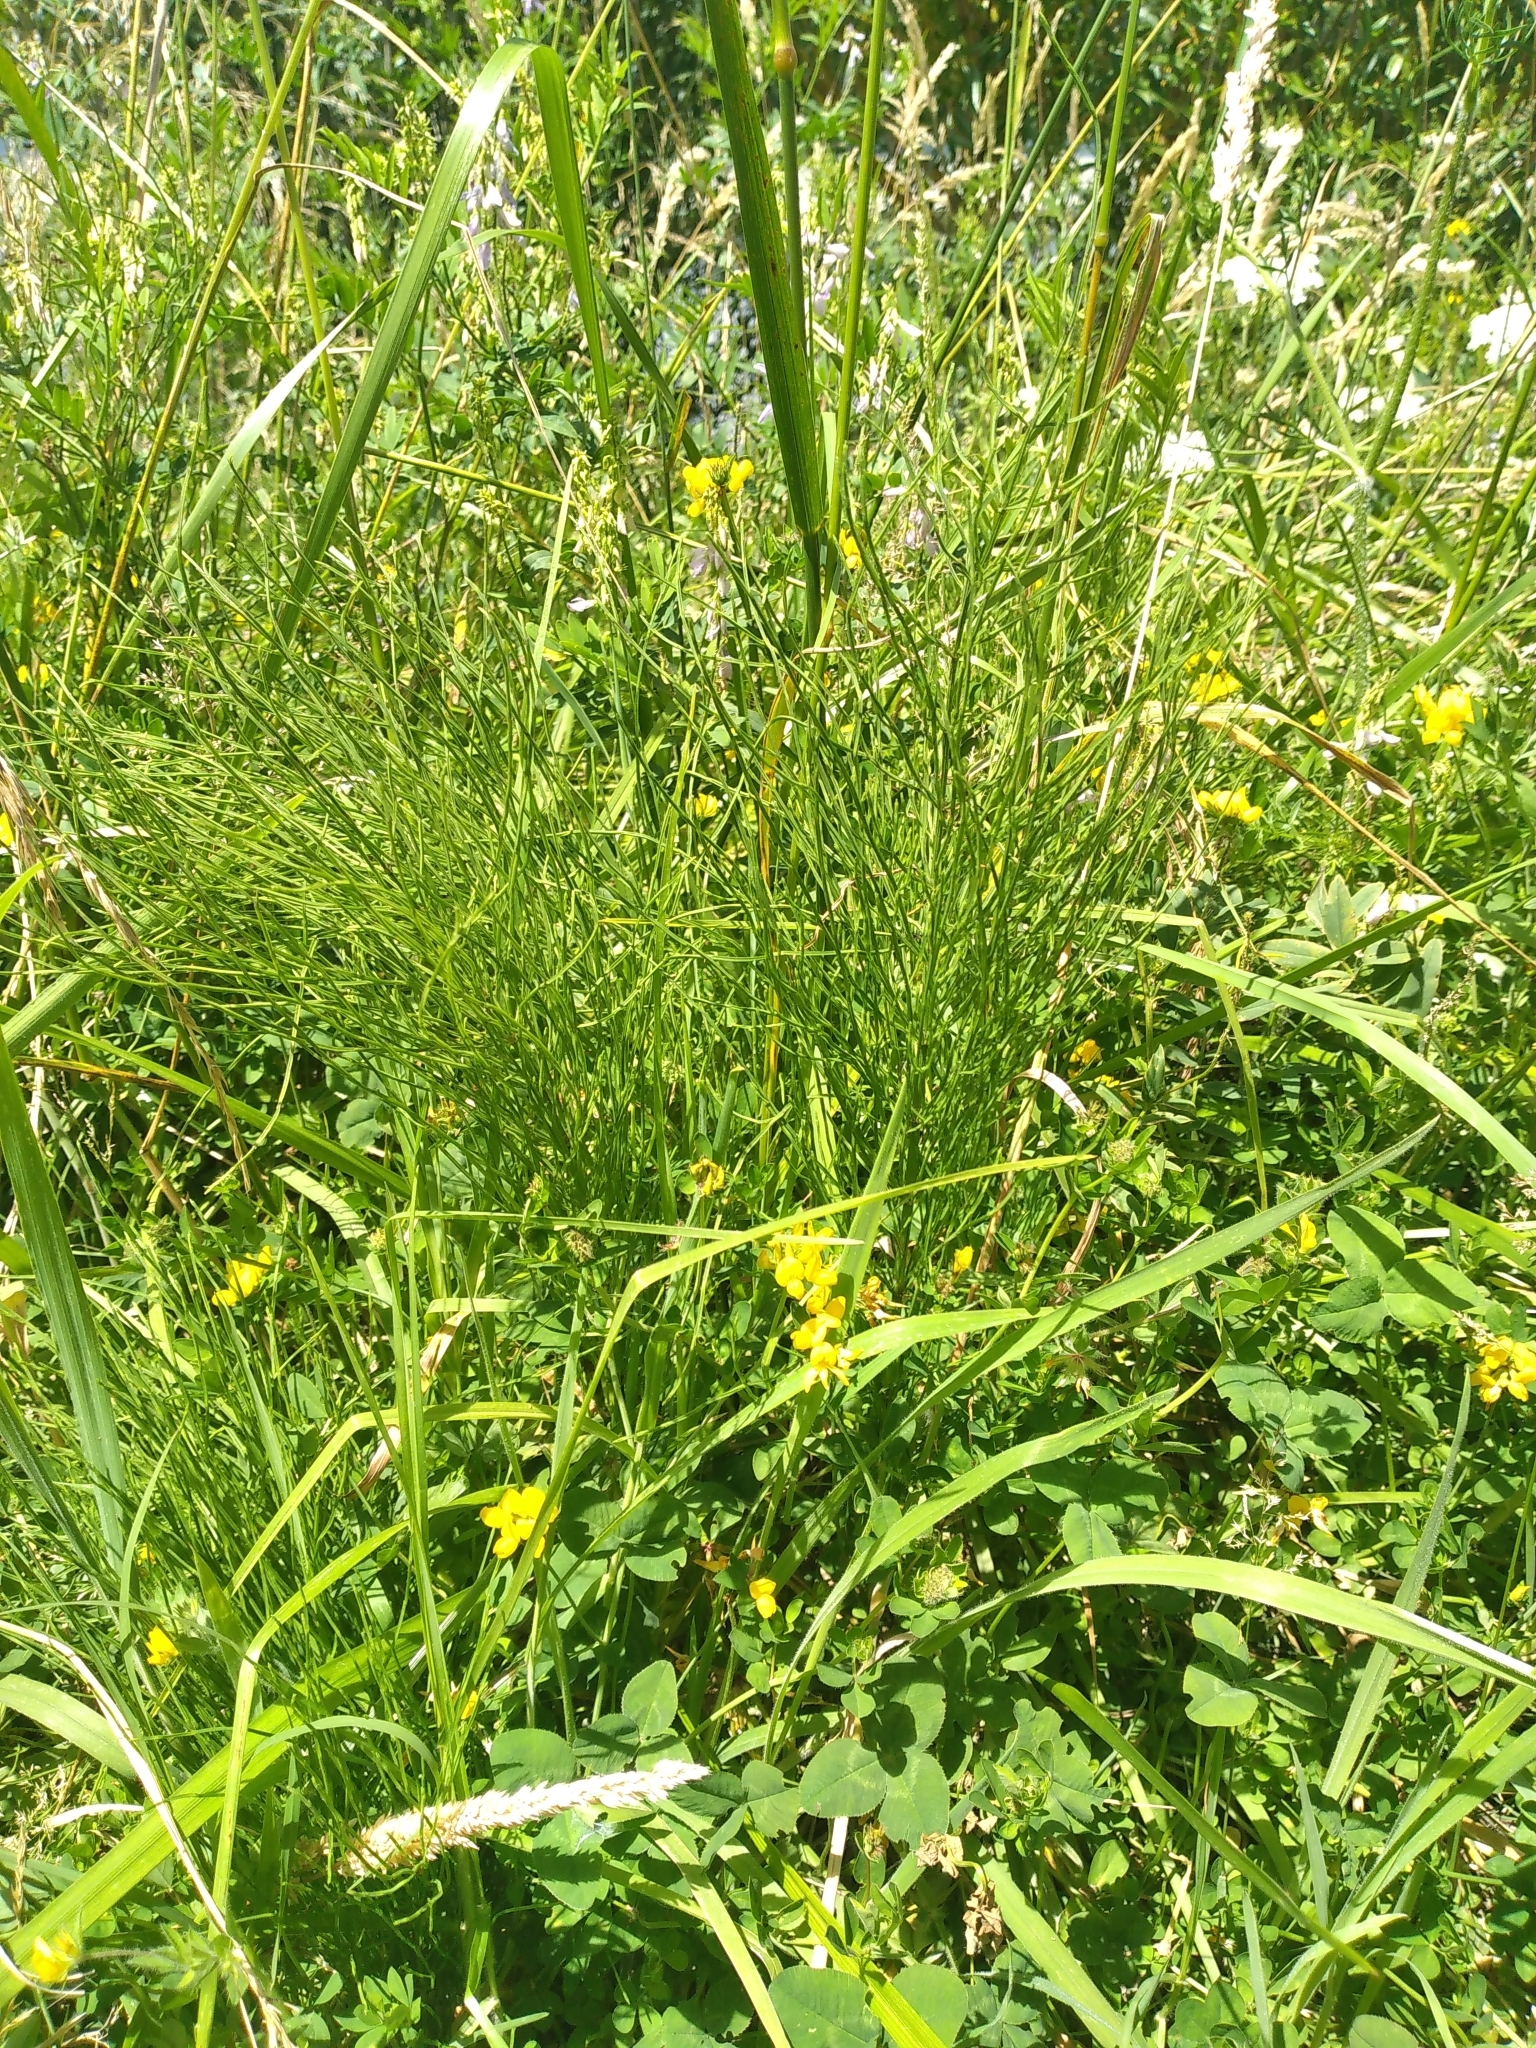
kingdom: Plantae
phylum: Tracheophyta
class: Polypodiopsida
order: Equisetales
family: Equisetaceae
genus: Equisetum
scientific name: Equisetum arvense
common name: Field horsetail
